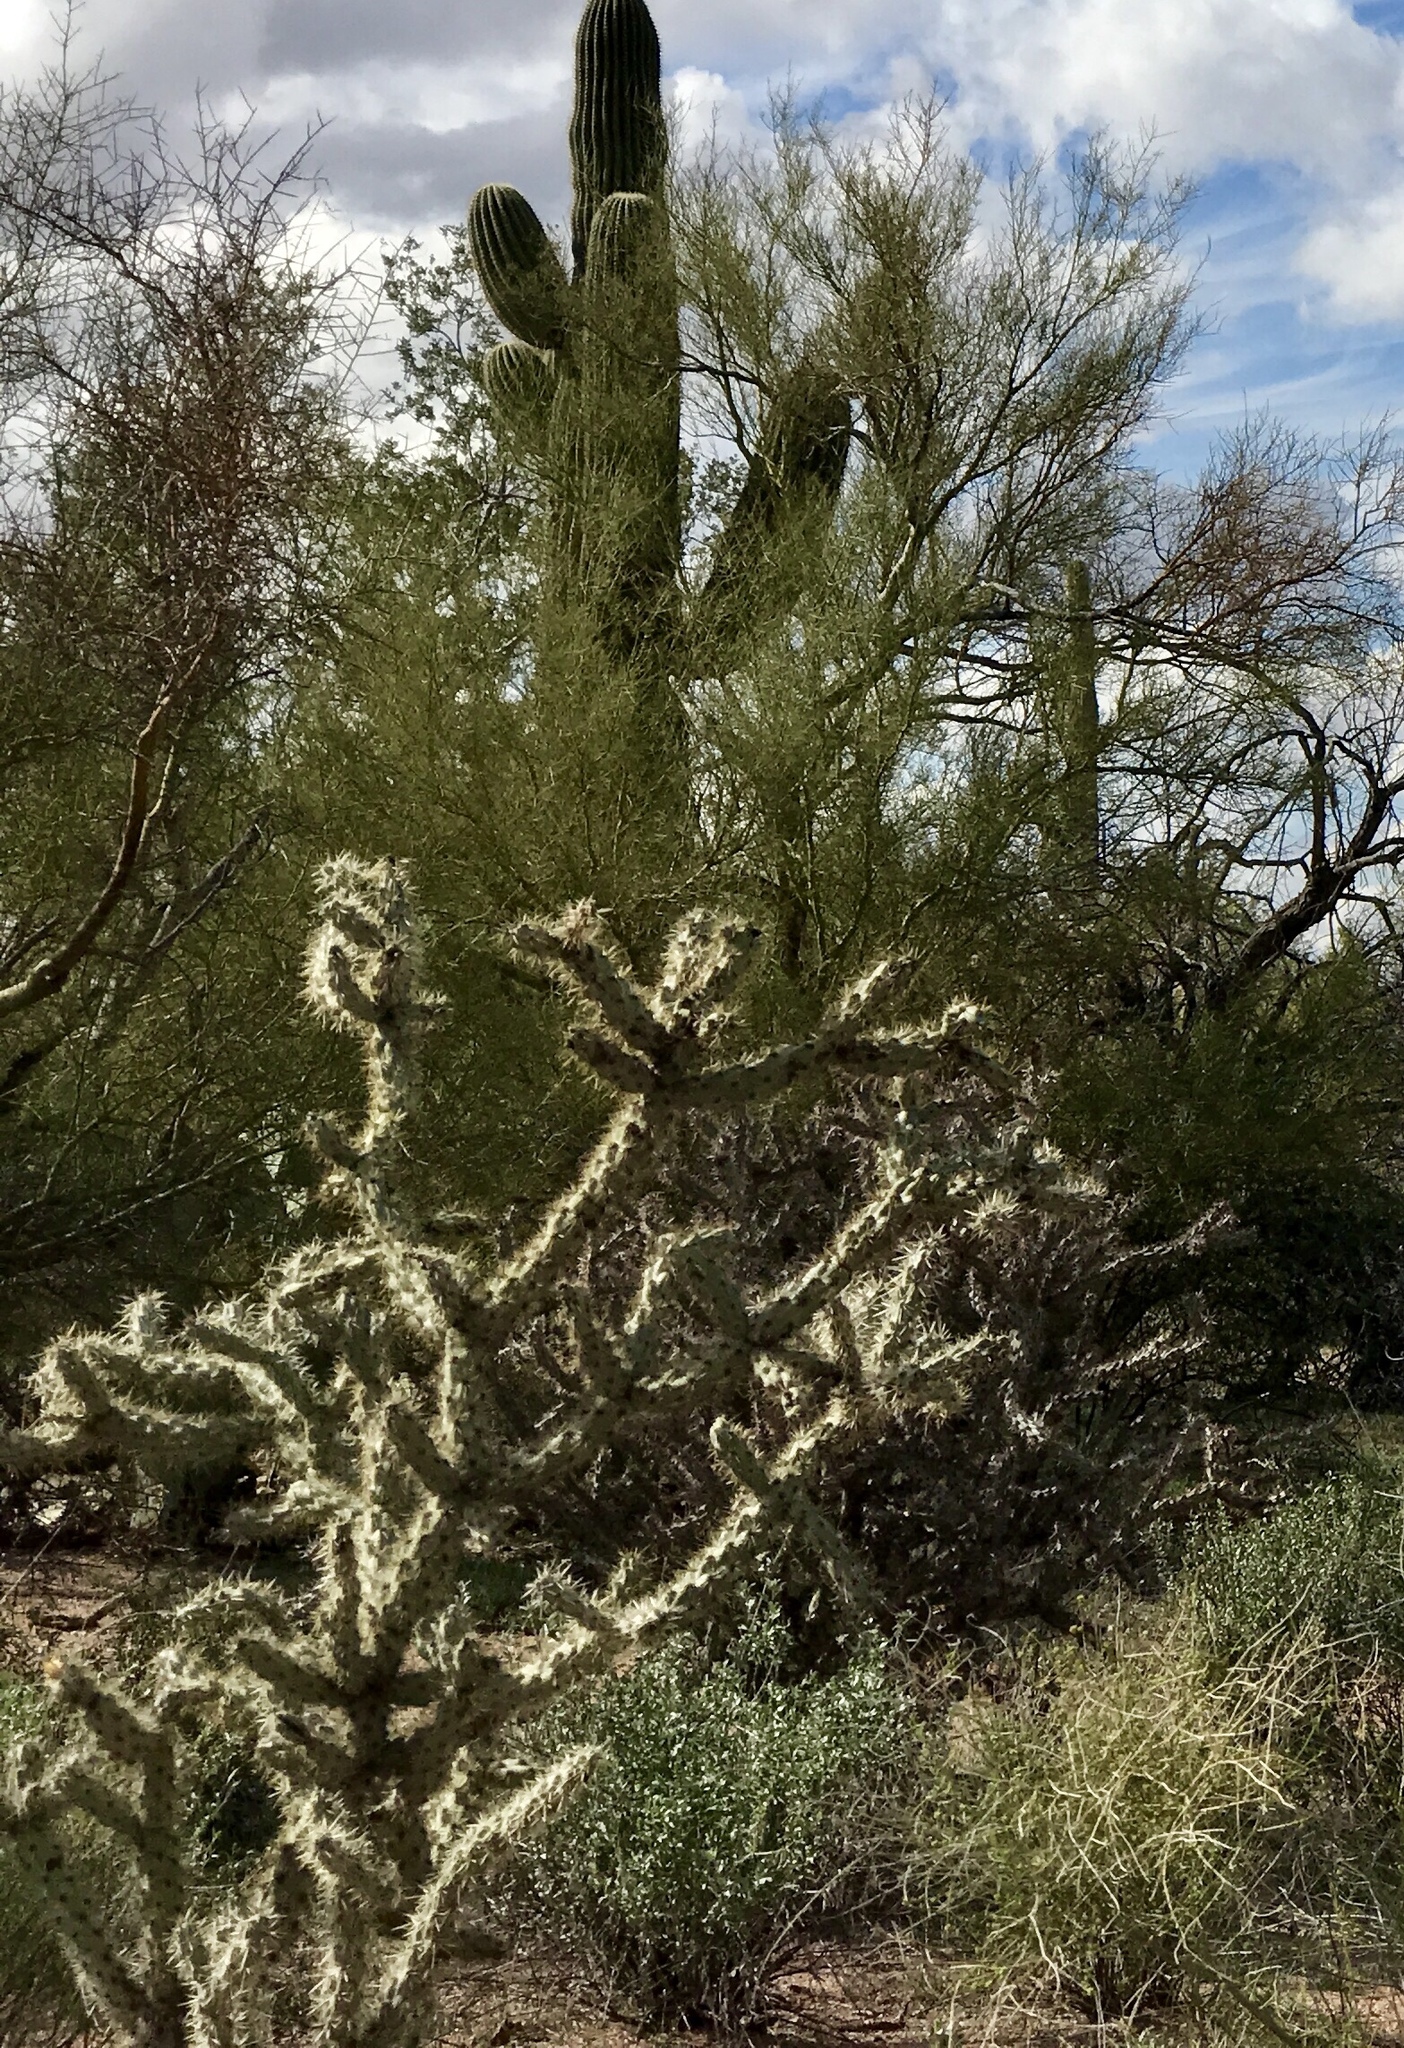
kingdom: Plantae
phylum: Tracheophyta
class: Magnoliopsida
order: Caryophyllales
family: Cactaceae
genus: Cylindropuntia
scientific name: Cylindropuntia acanthocarpa
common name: Buckhorn cholla
